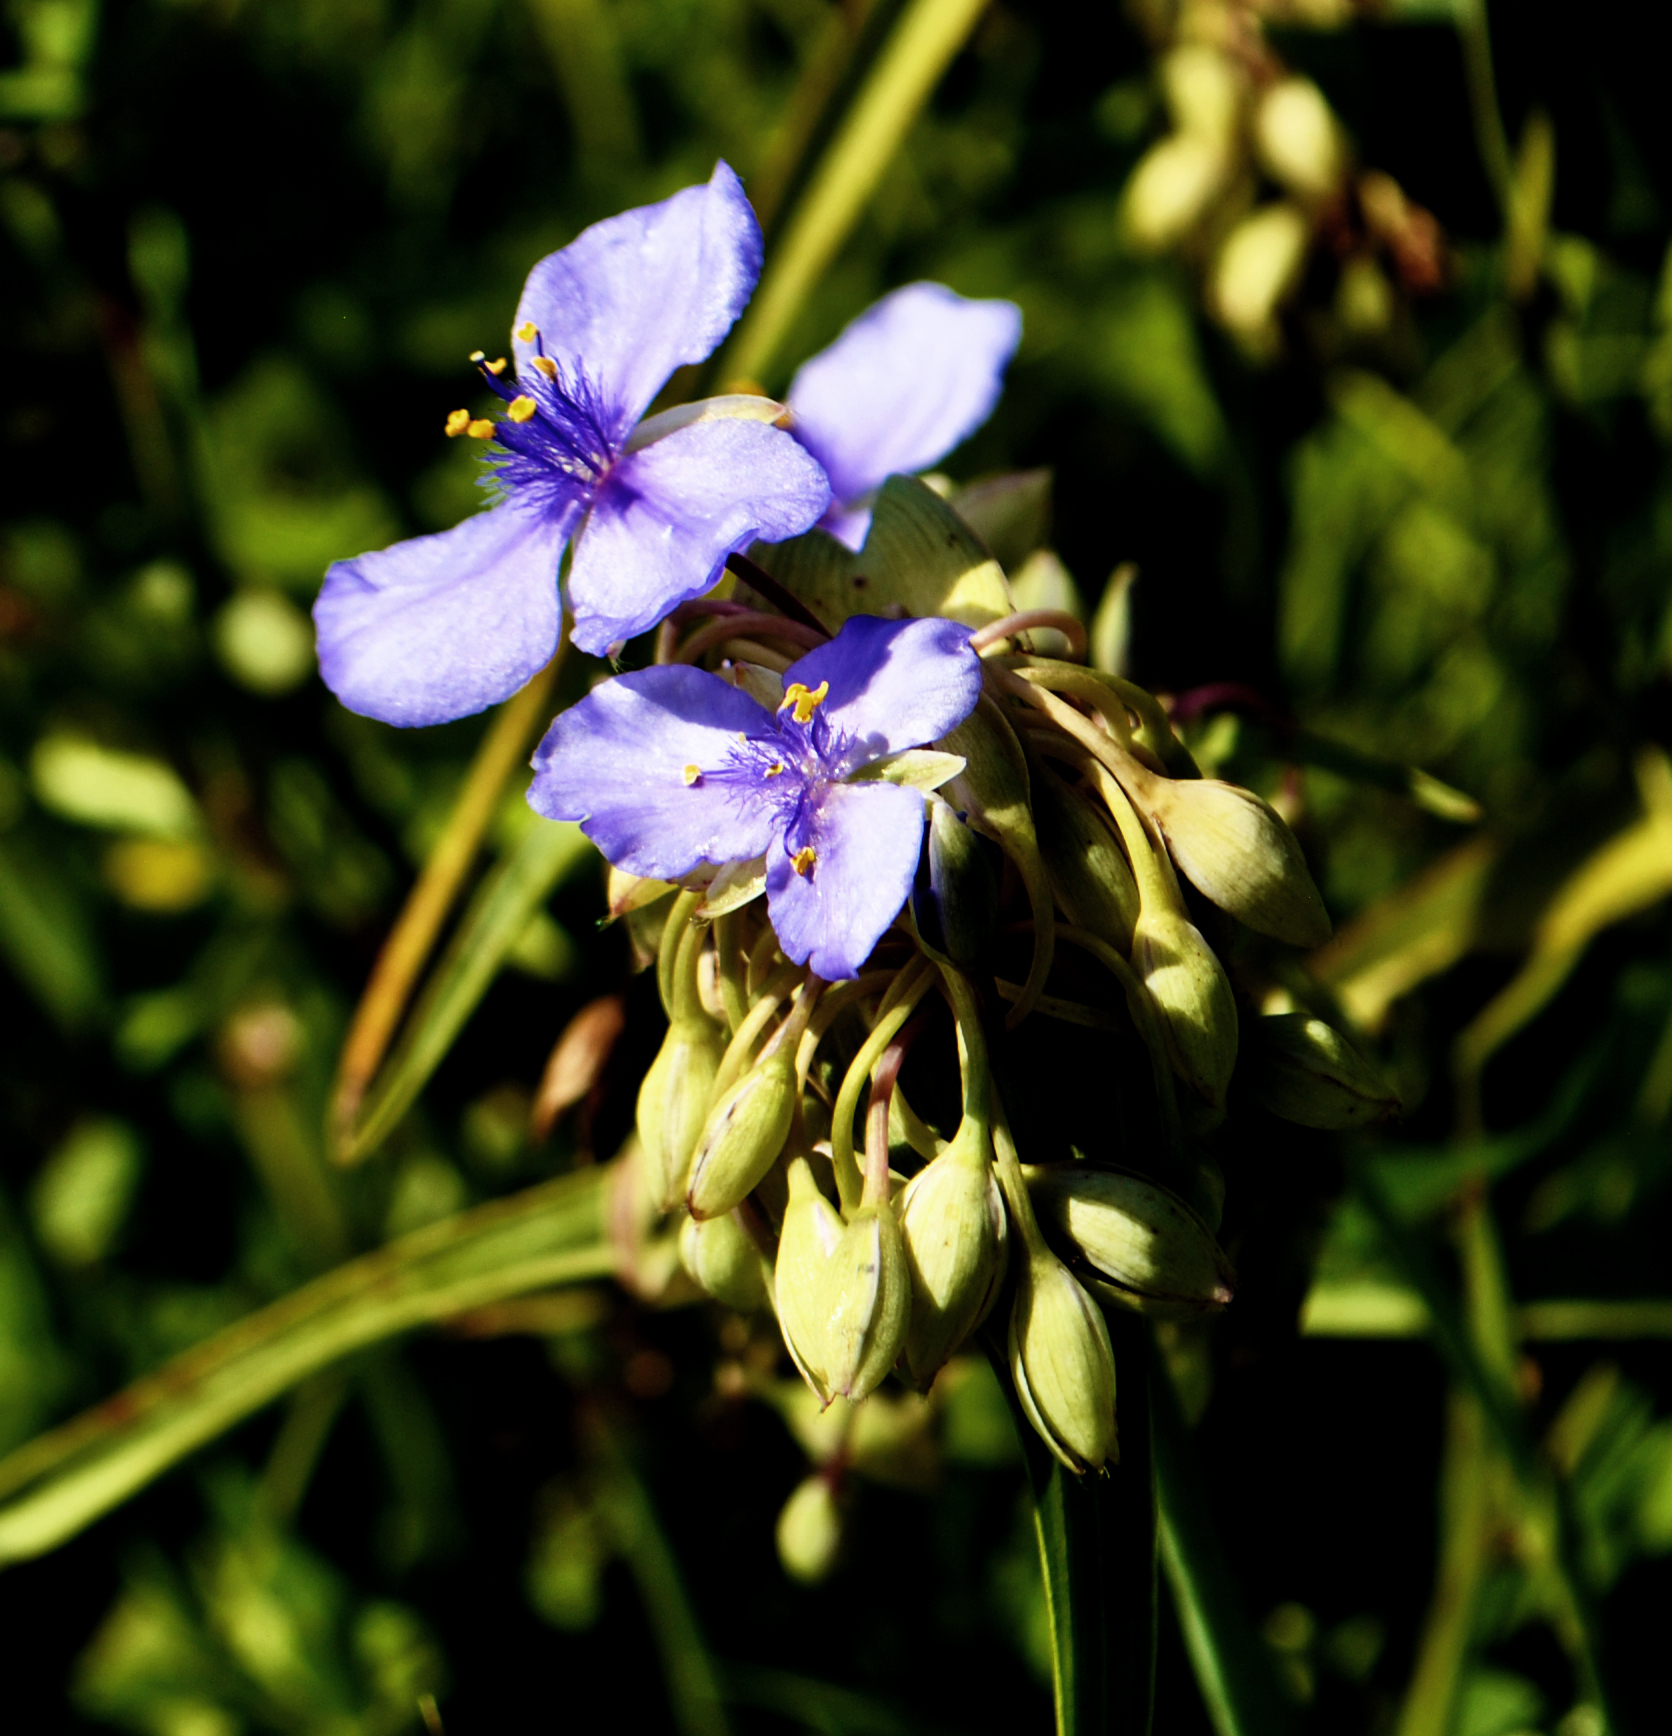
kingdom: Plantae
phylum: Tracheophyta
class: Liliopsida
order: Commelinales
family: Commelinaceae
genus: Tradescantia
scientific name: Tradescantia ohiensis
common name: Ohio spiderwort
